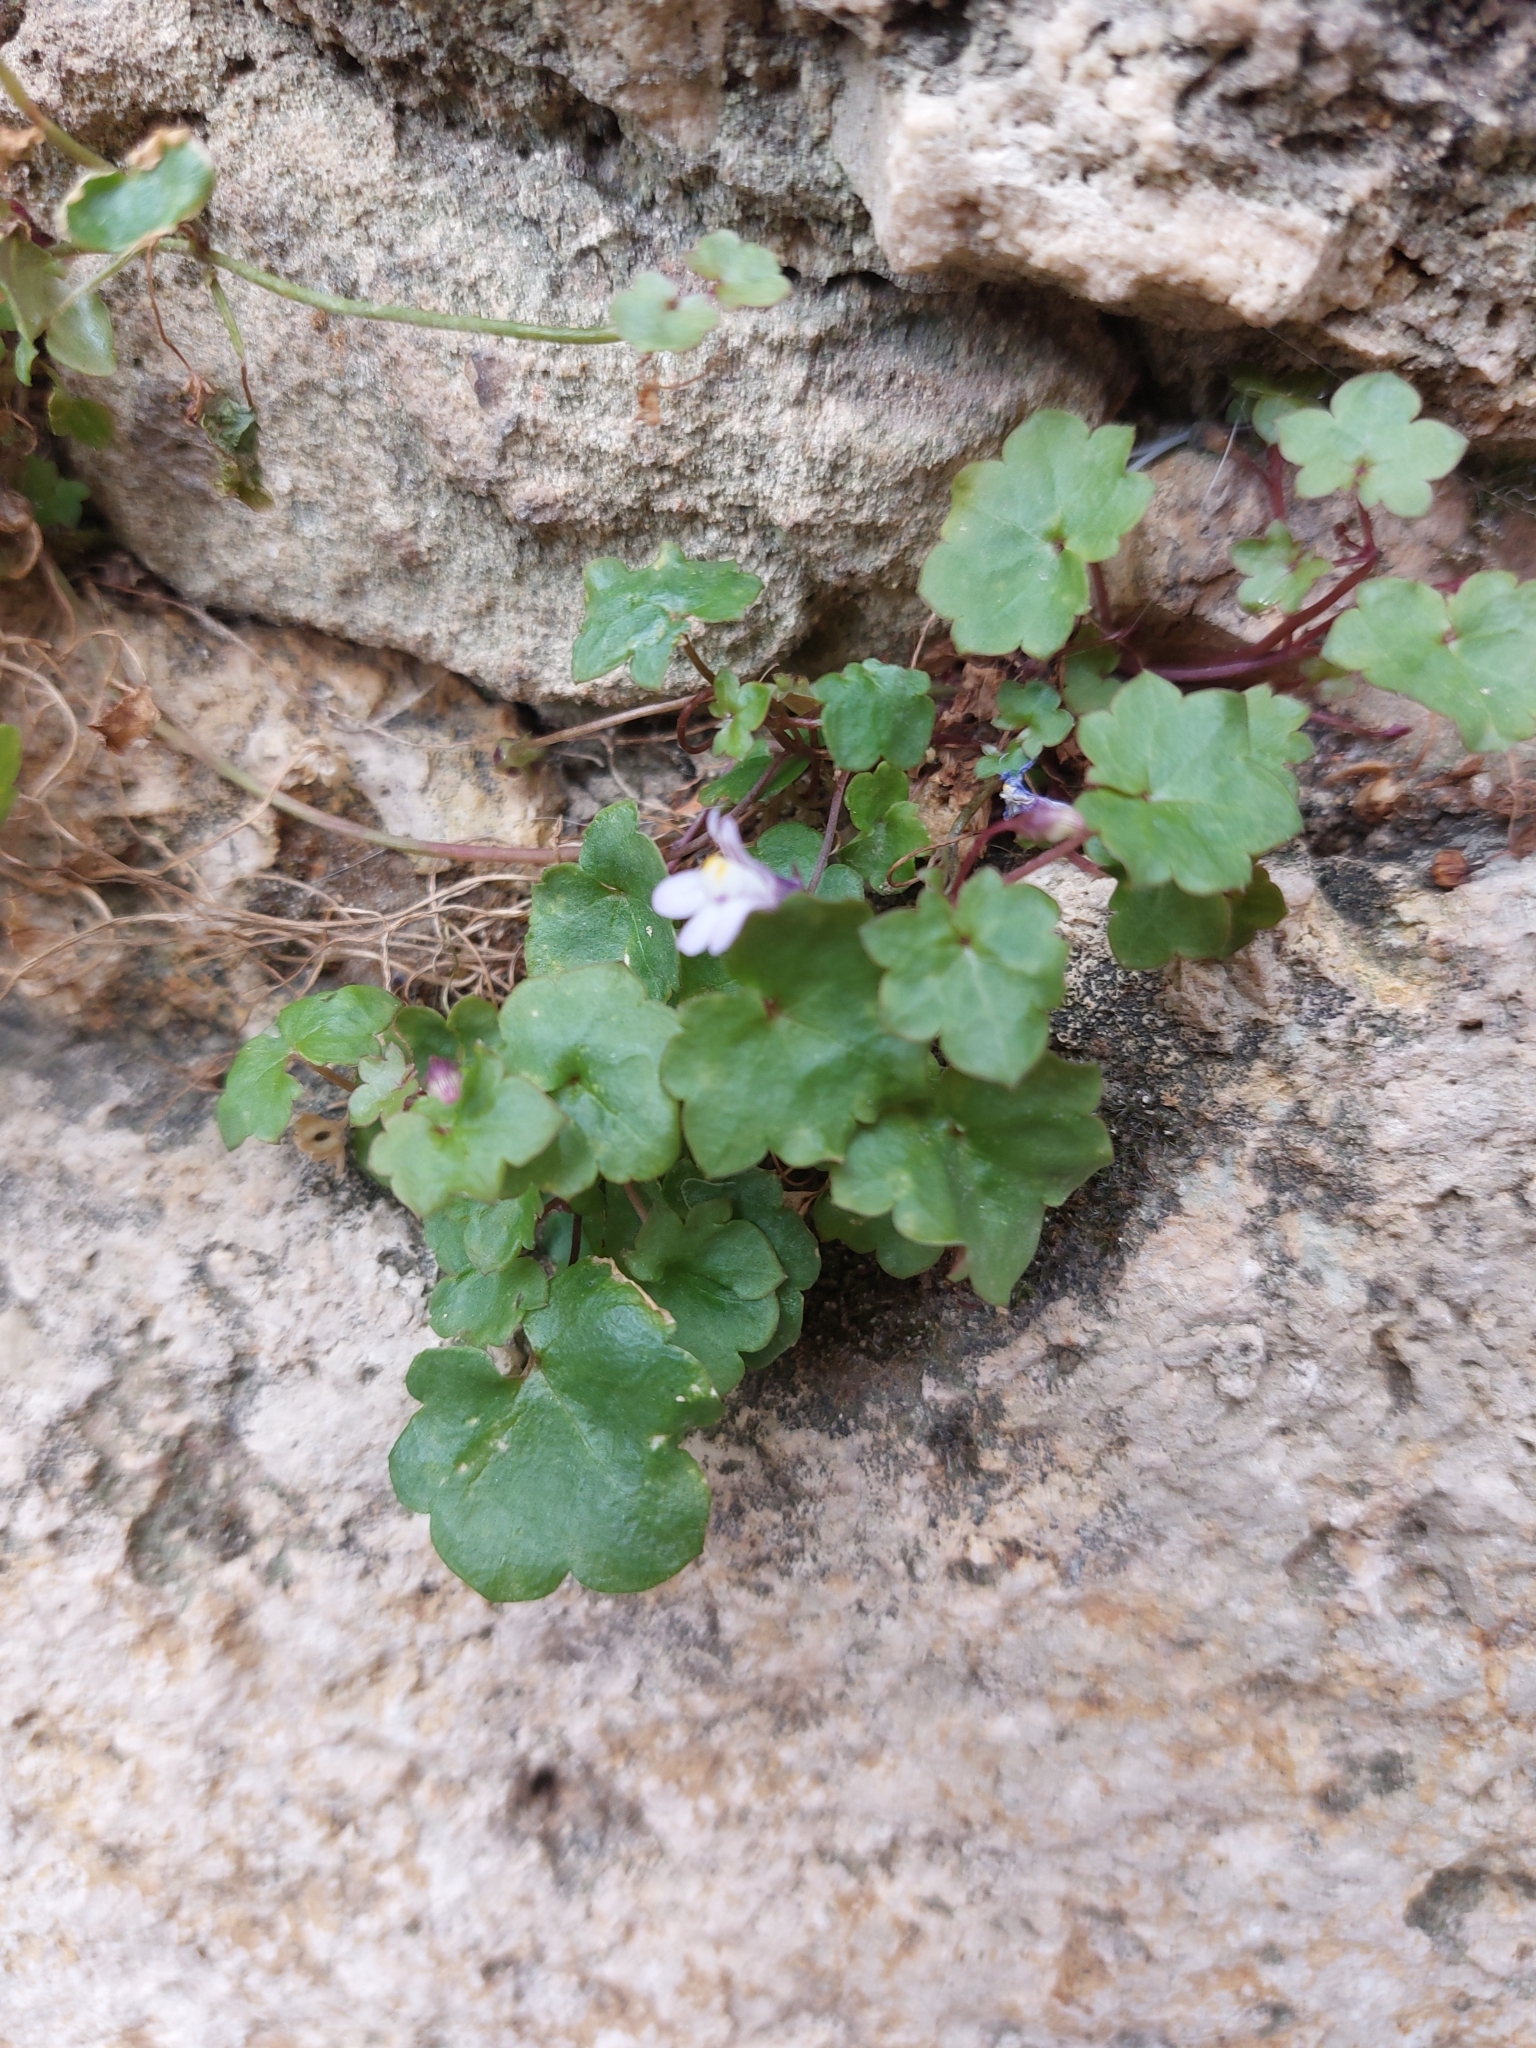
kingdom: Plantae
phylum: Tracheophyta
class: Magnoliopsida
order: Lamiales
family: Plantaginaceae
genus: Cymbalaria
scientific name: Cymbalaria muralis
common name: Ivy-leaved toadflax
